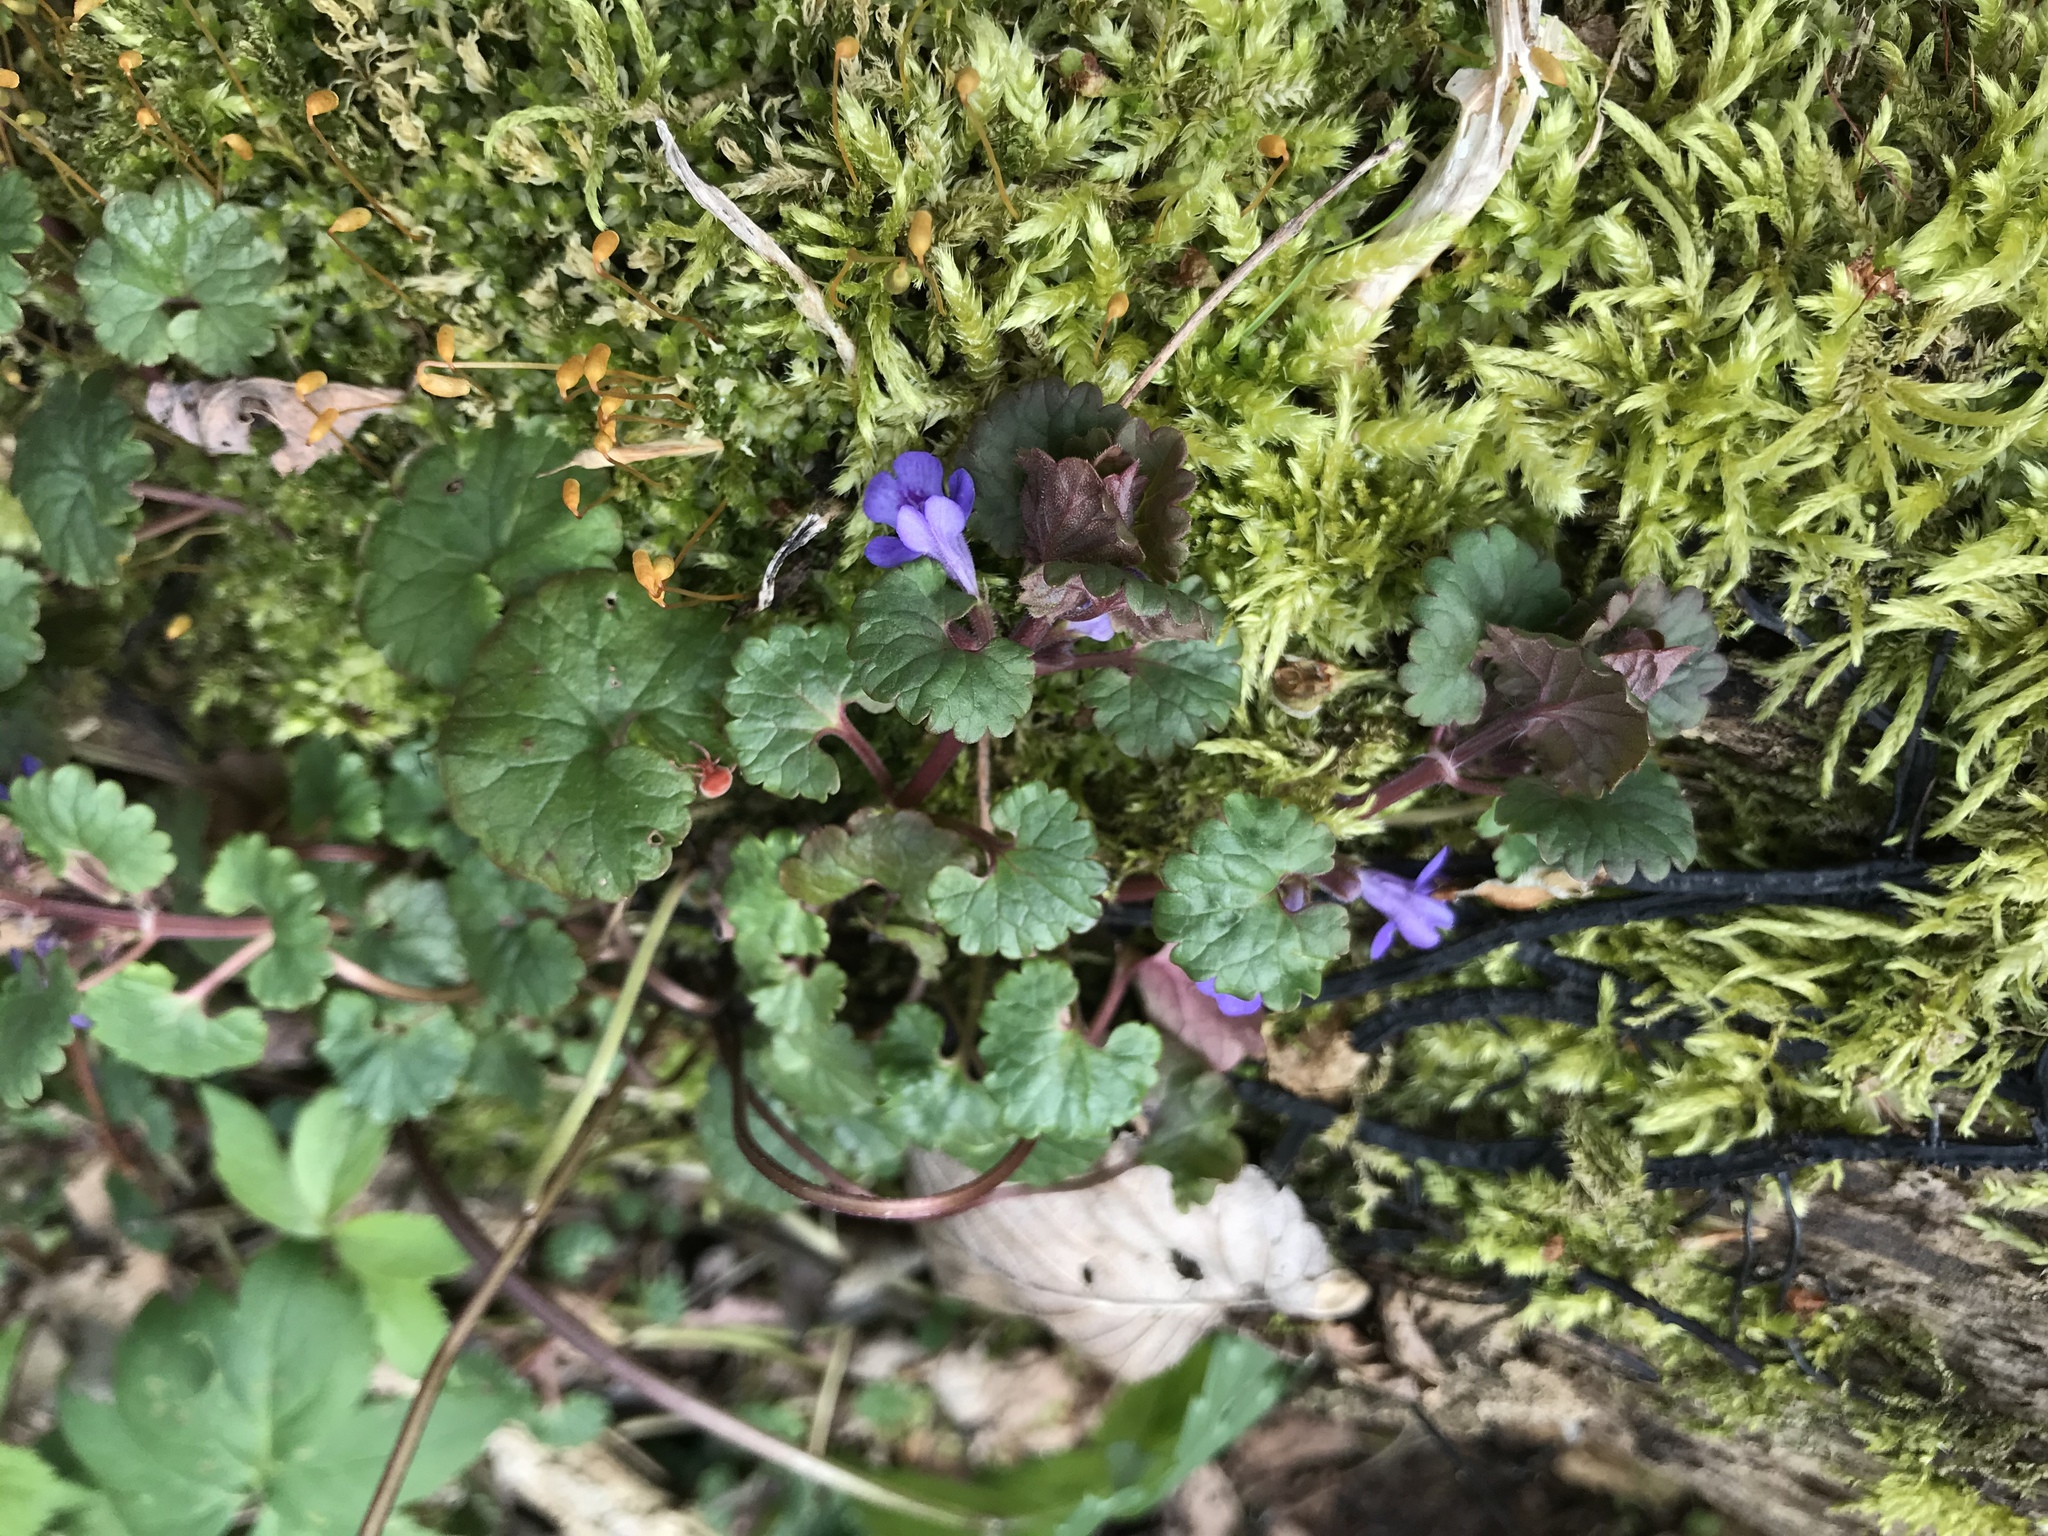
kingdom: Plantae
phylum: Tracheophyta
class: Magnoliopsida
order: Lamiales
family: Lamiaceae
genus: Glechoma
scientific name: Glechoma hederacea
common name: Ground ivy
